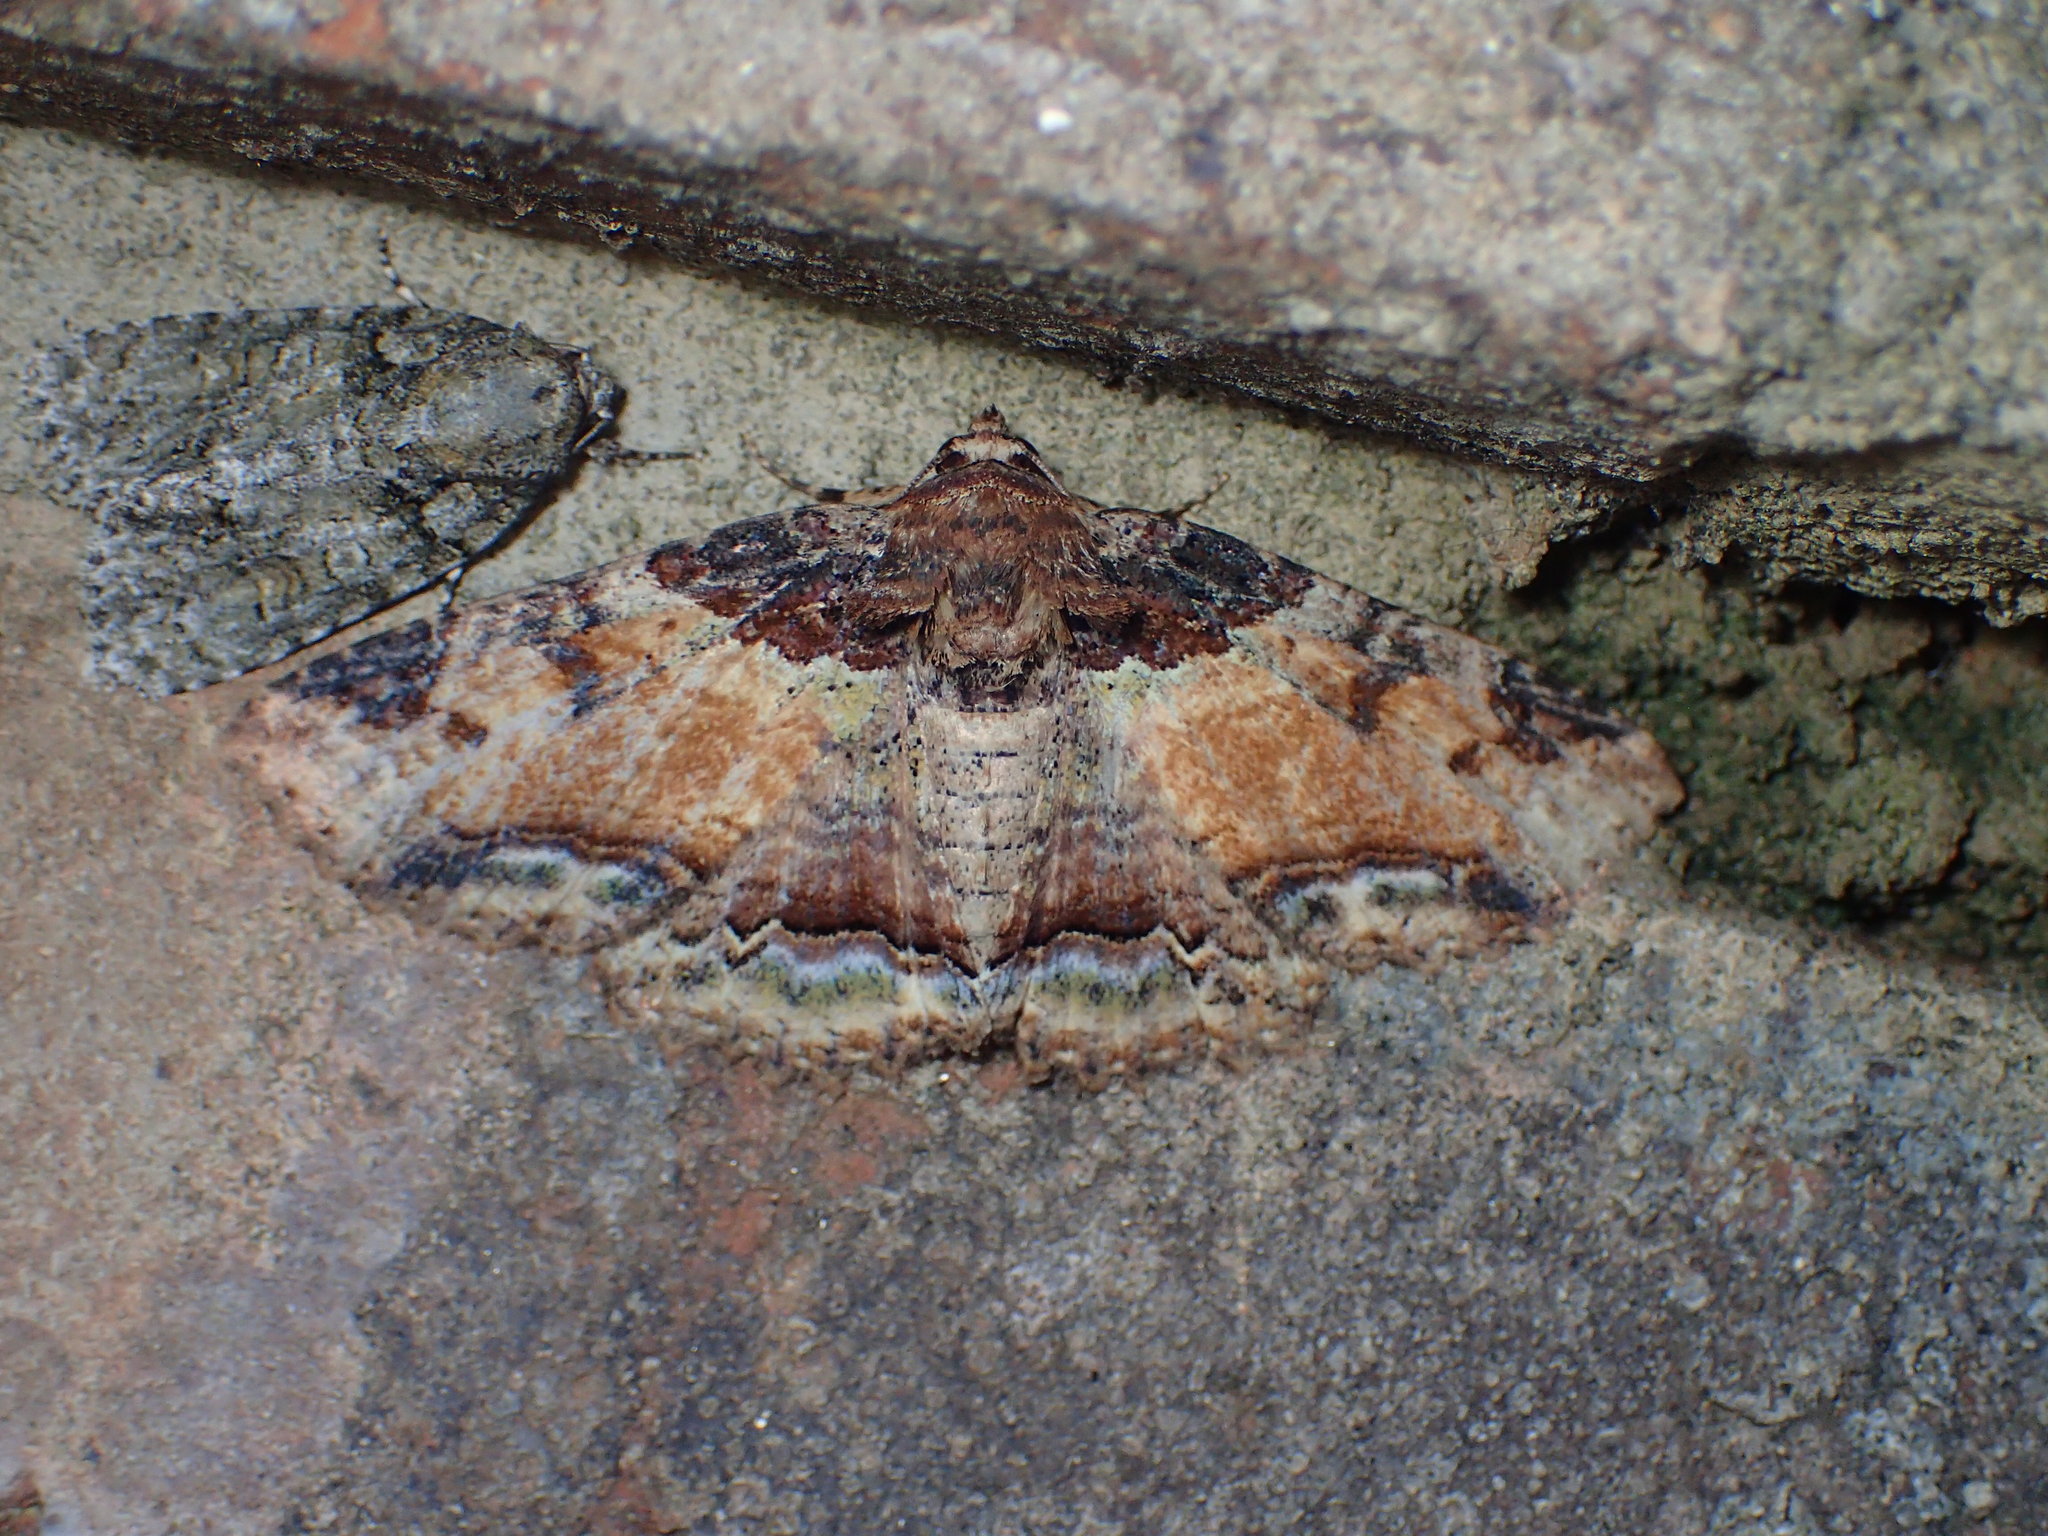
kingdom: Animalia
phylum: Arthropoda
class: Insecta
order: Lepidoptera
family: Erebidae
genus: Zale
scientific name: Zale minerea
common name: Colorful zale moth
